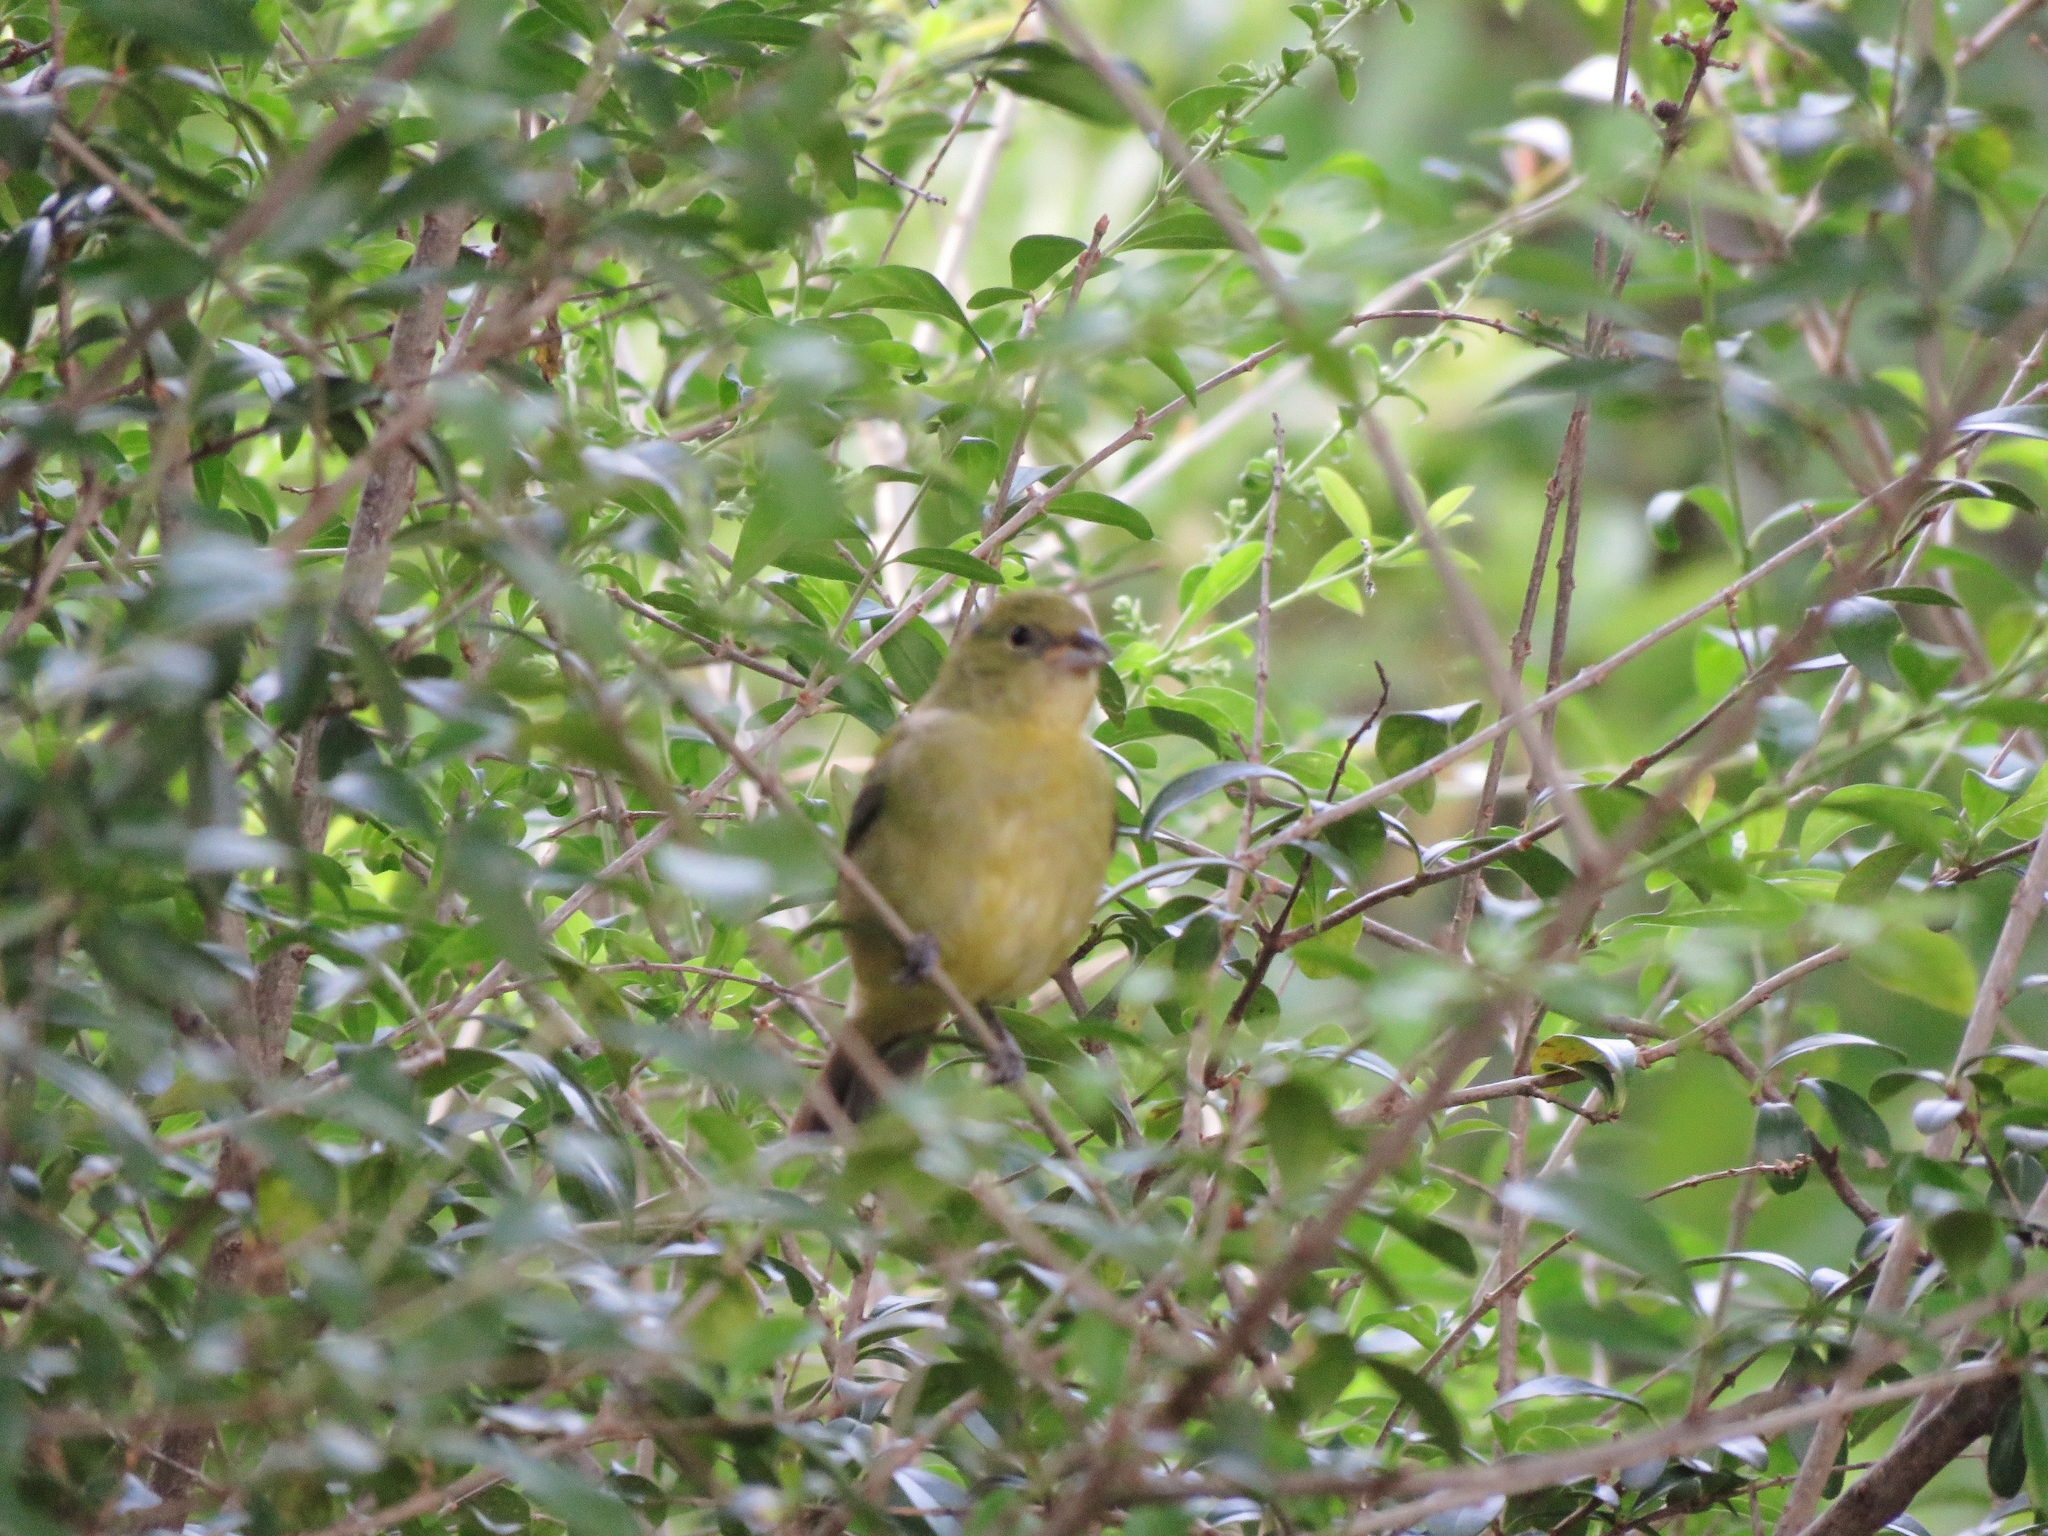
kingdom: Animalia
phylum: Chordata
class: Aves
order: Passeriformes
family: Cardinalidae
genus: Passerina
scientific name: Passerina ciris
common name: Painted bunting
